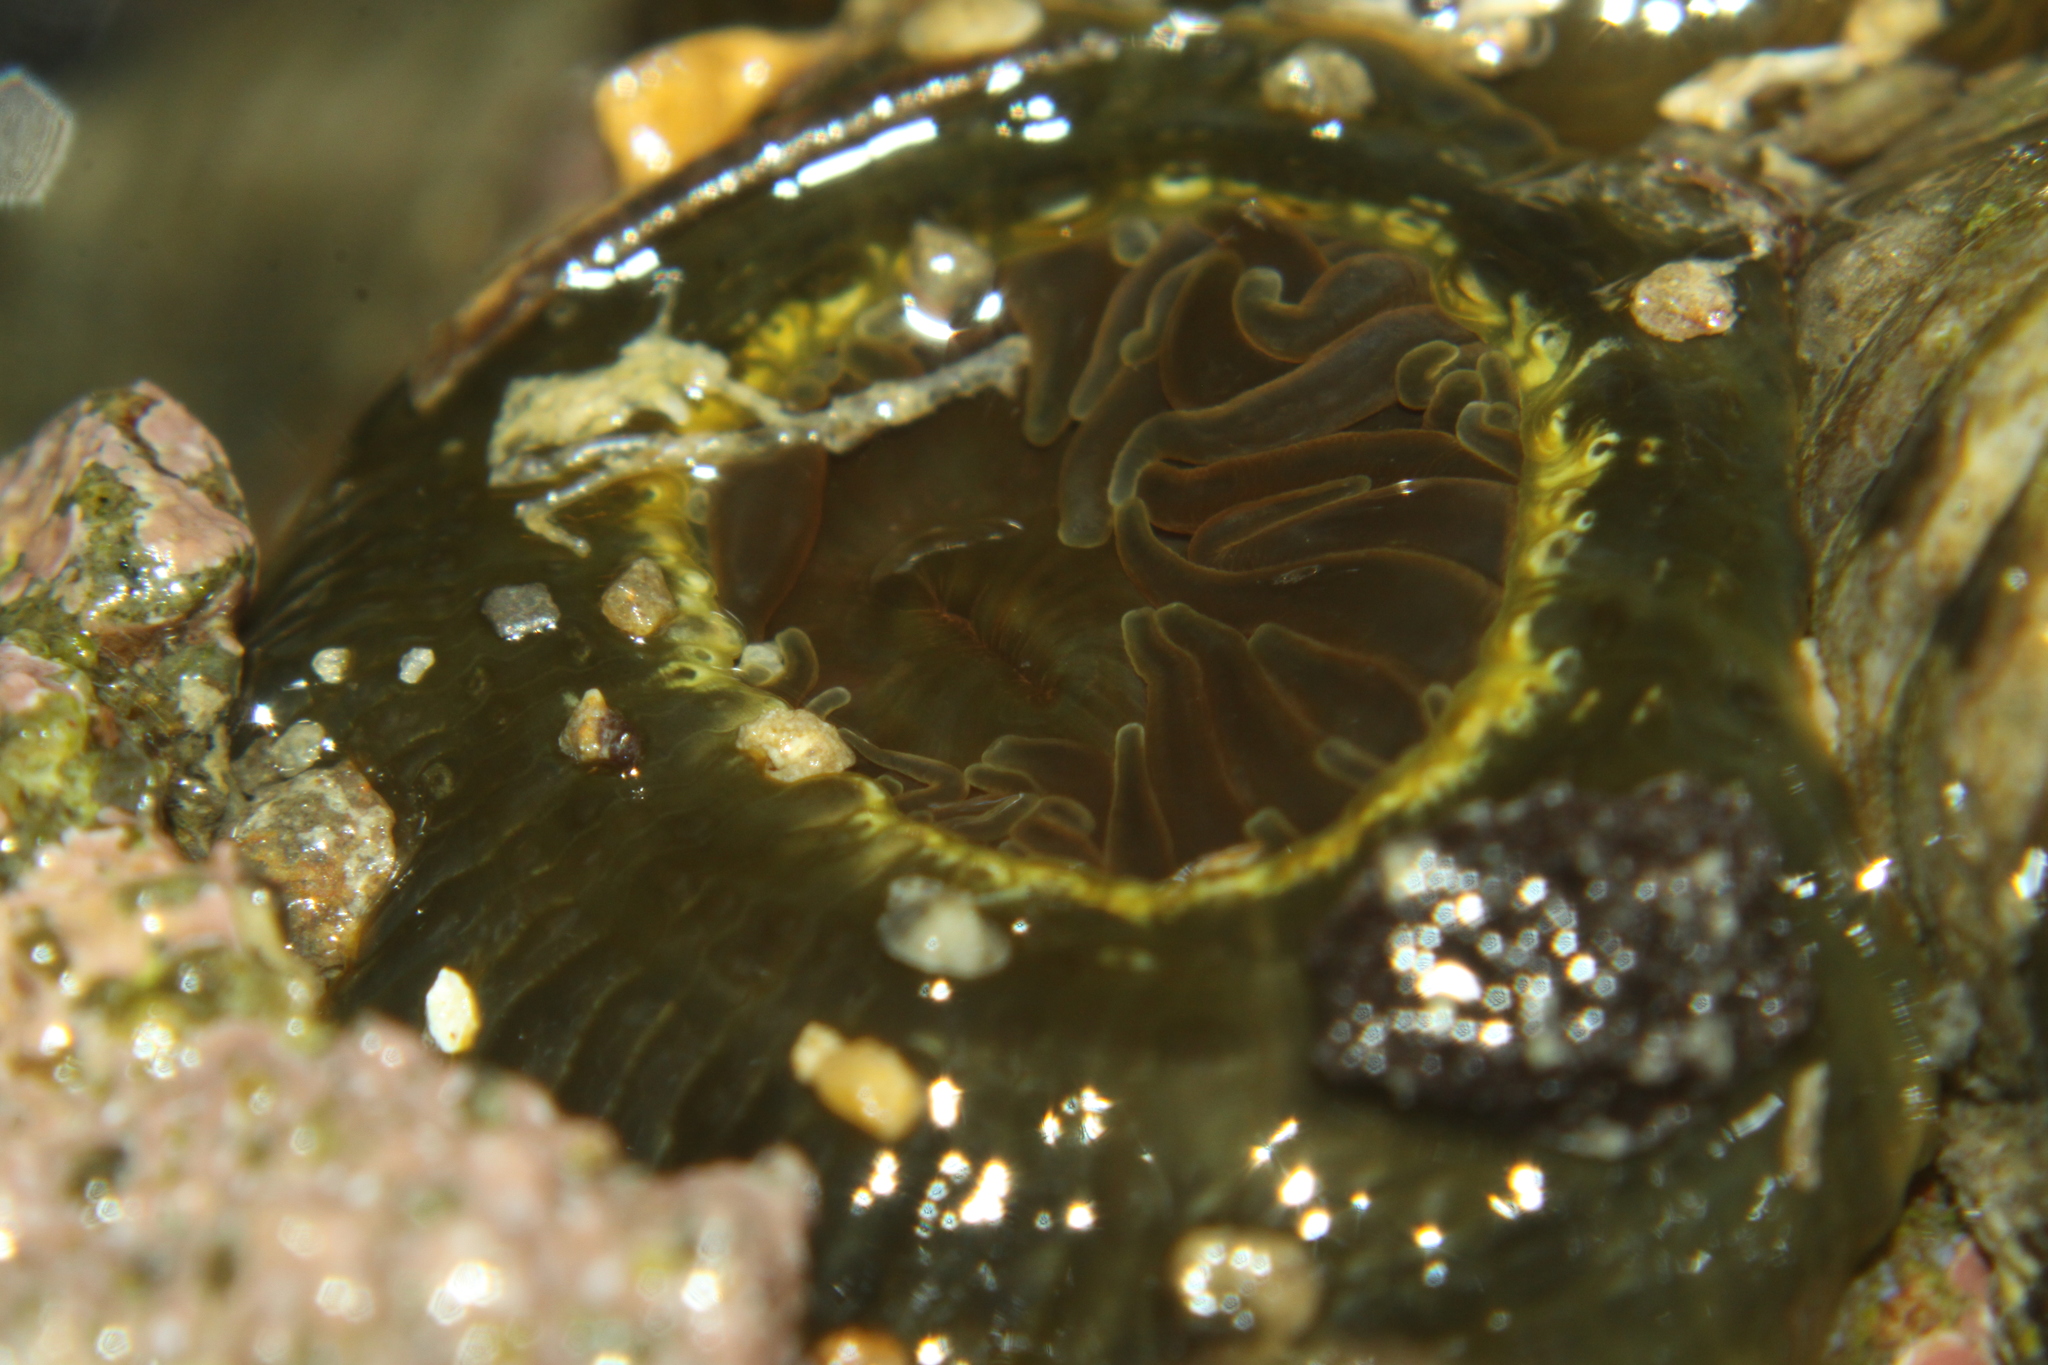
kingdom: Animalia
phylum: Cnidaria
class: Anthozoa
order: Actiniaria
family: Actiniidae
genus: Isactinia
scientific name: Isactinia olivacea
